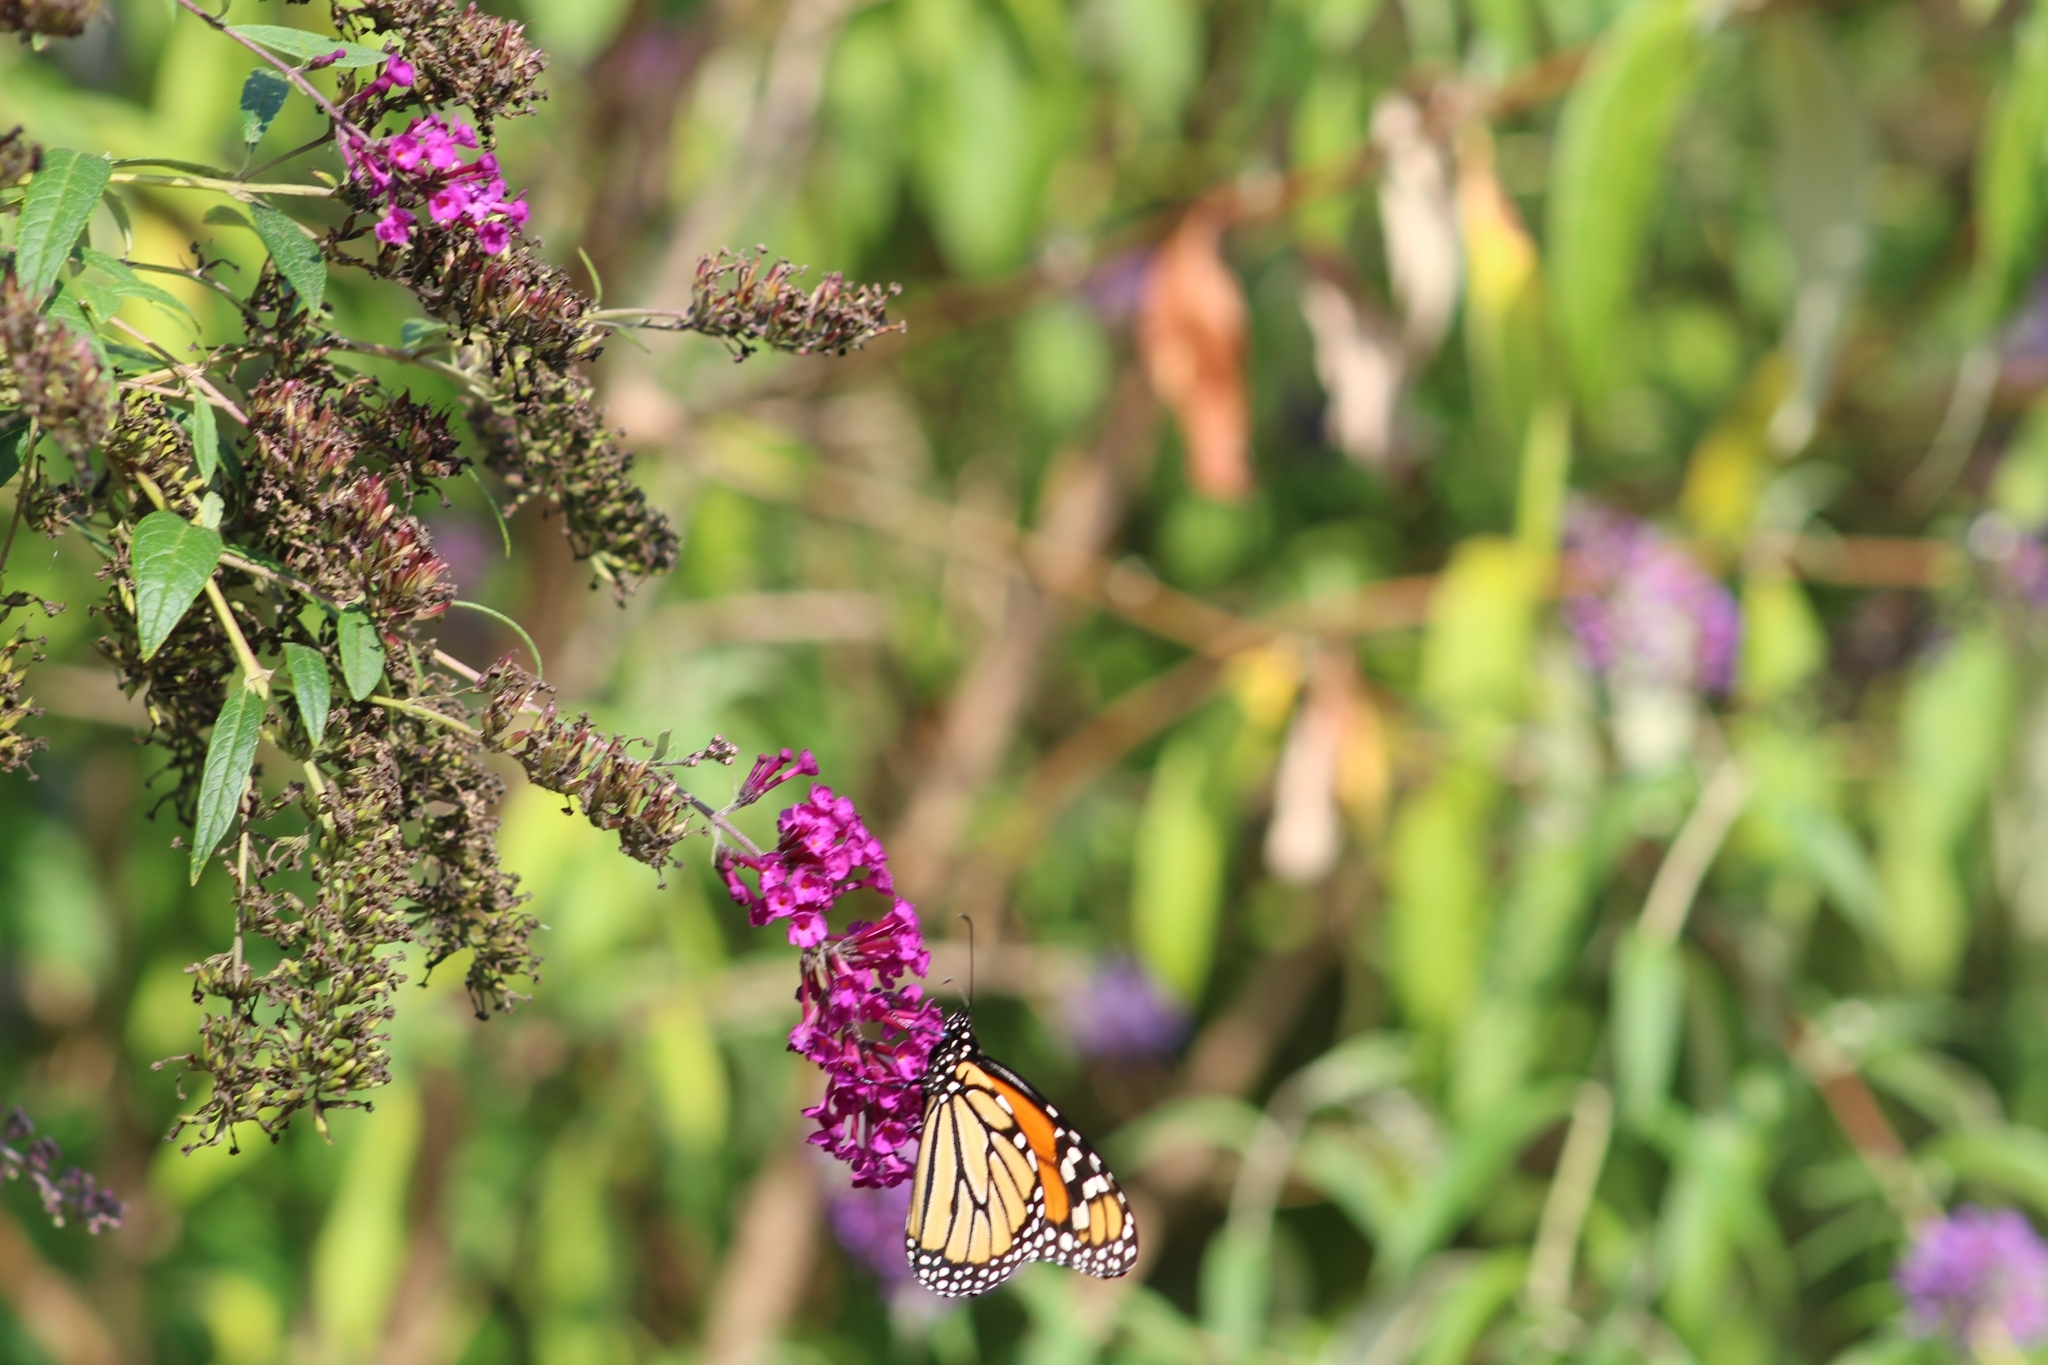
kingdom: Animalia
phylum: Arthropoda
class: Insecta
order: Lepidoptera
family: Nymphalidae
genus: Danaus
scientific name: Danaus plexippus
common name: Monarch
